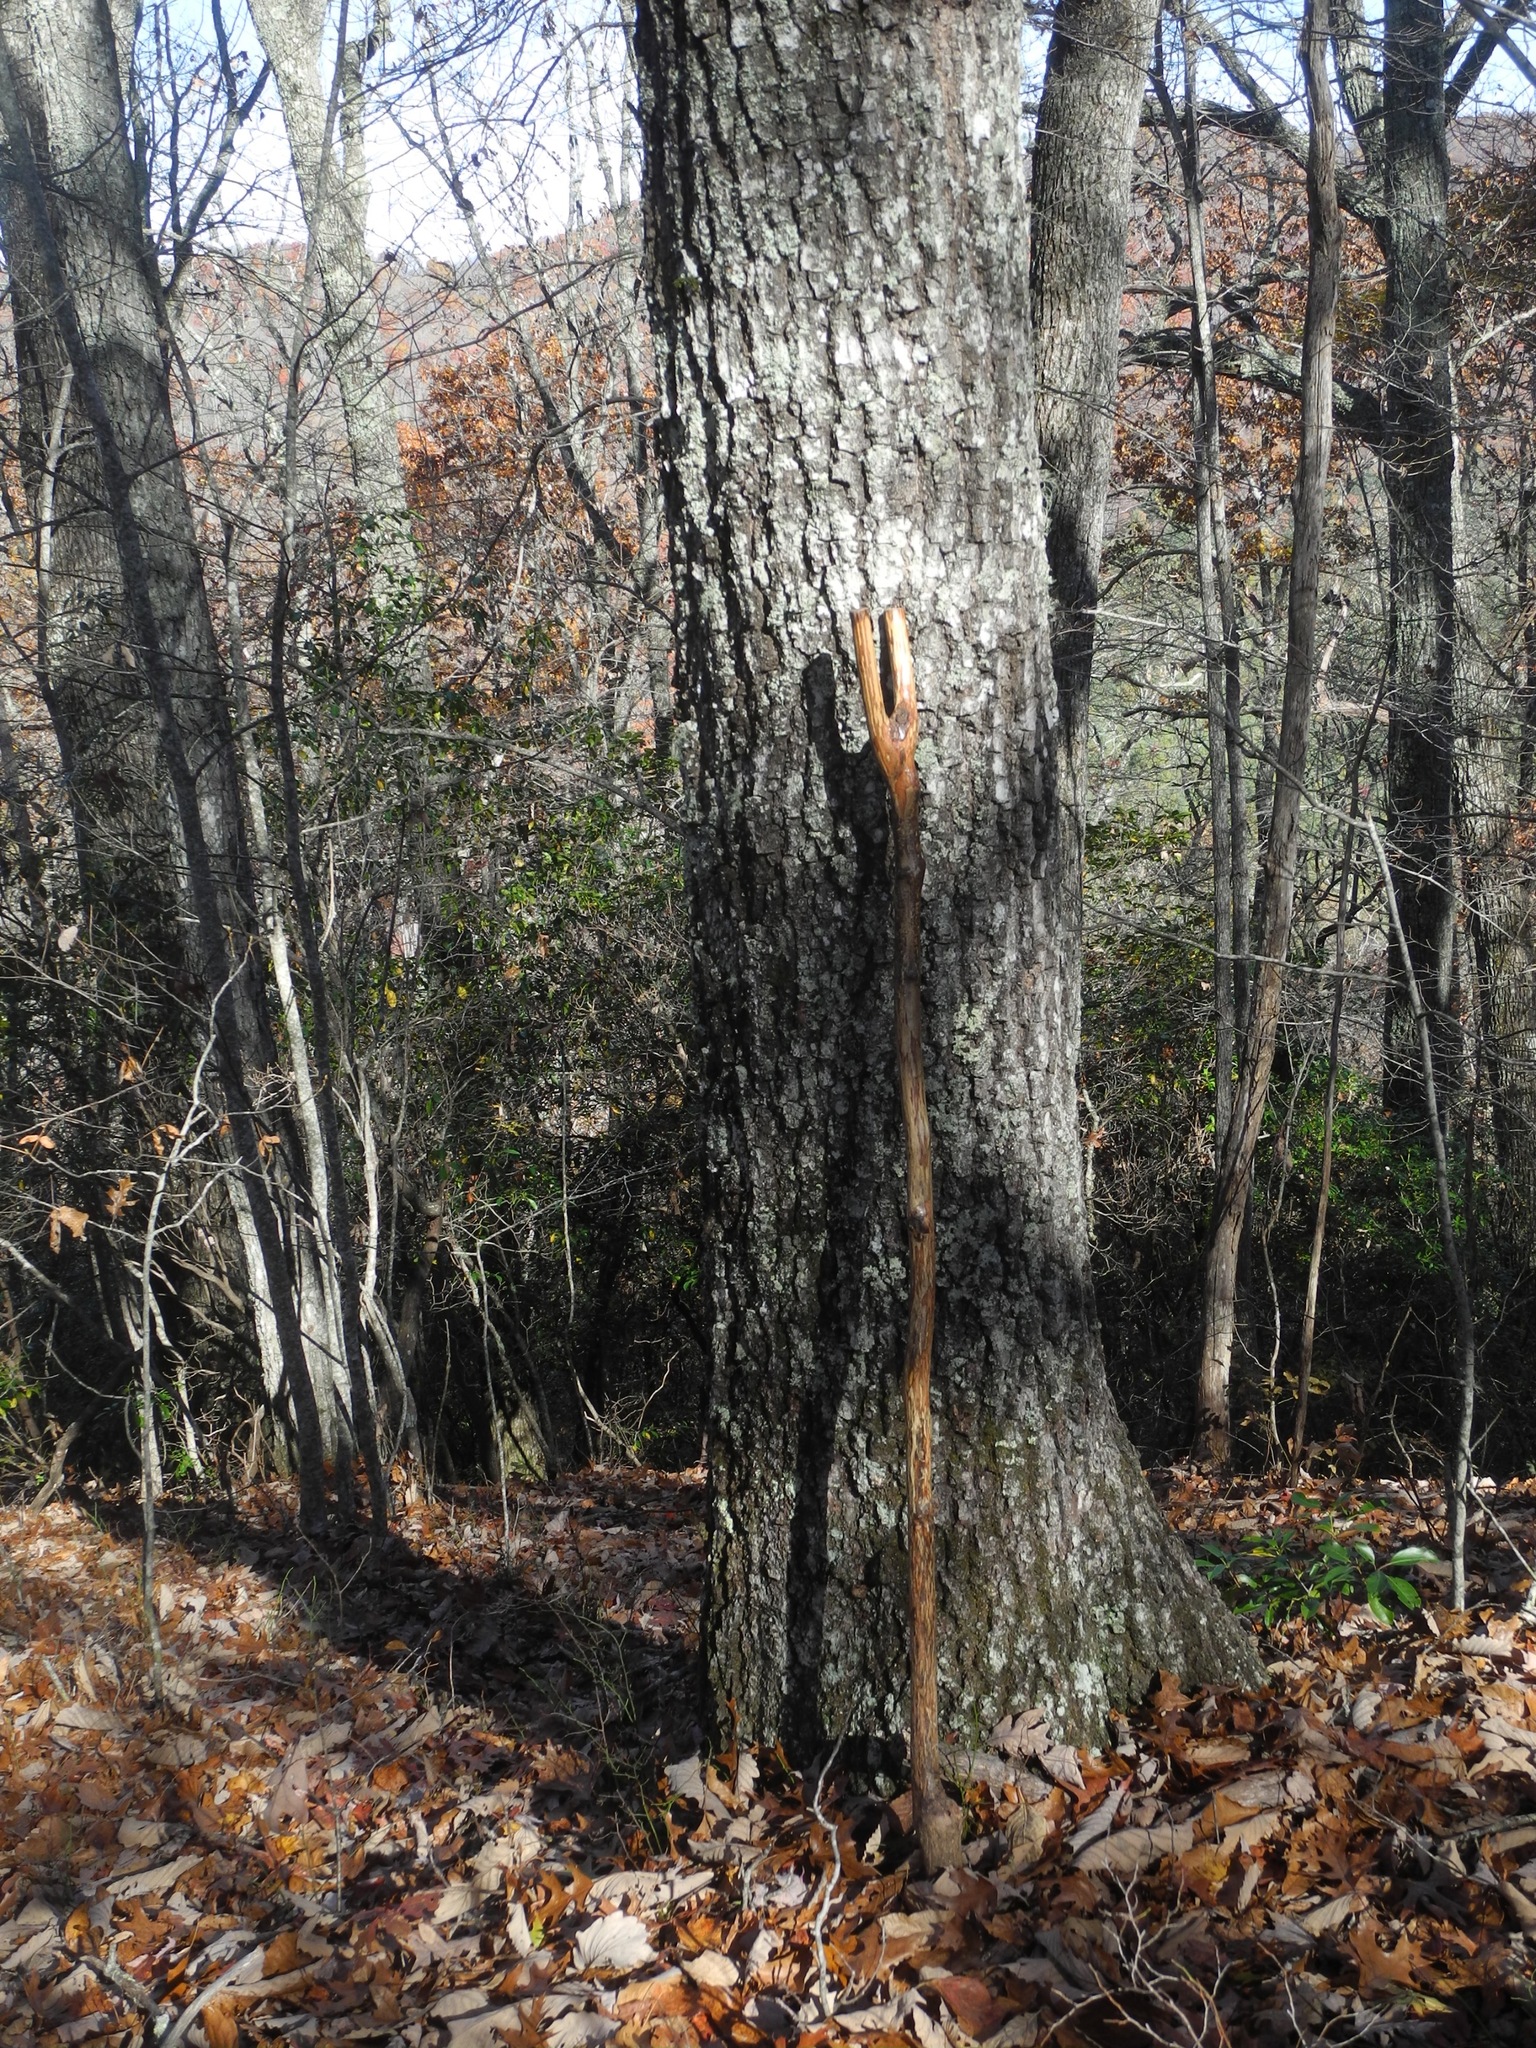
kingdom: Plantae
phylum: Tracheophyta
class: Magnoliopsida
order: Fagales
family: Fagaceae
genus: Quercus
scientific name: Quercus coccinea
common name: Scarlet oak
